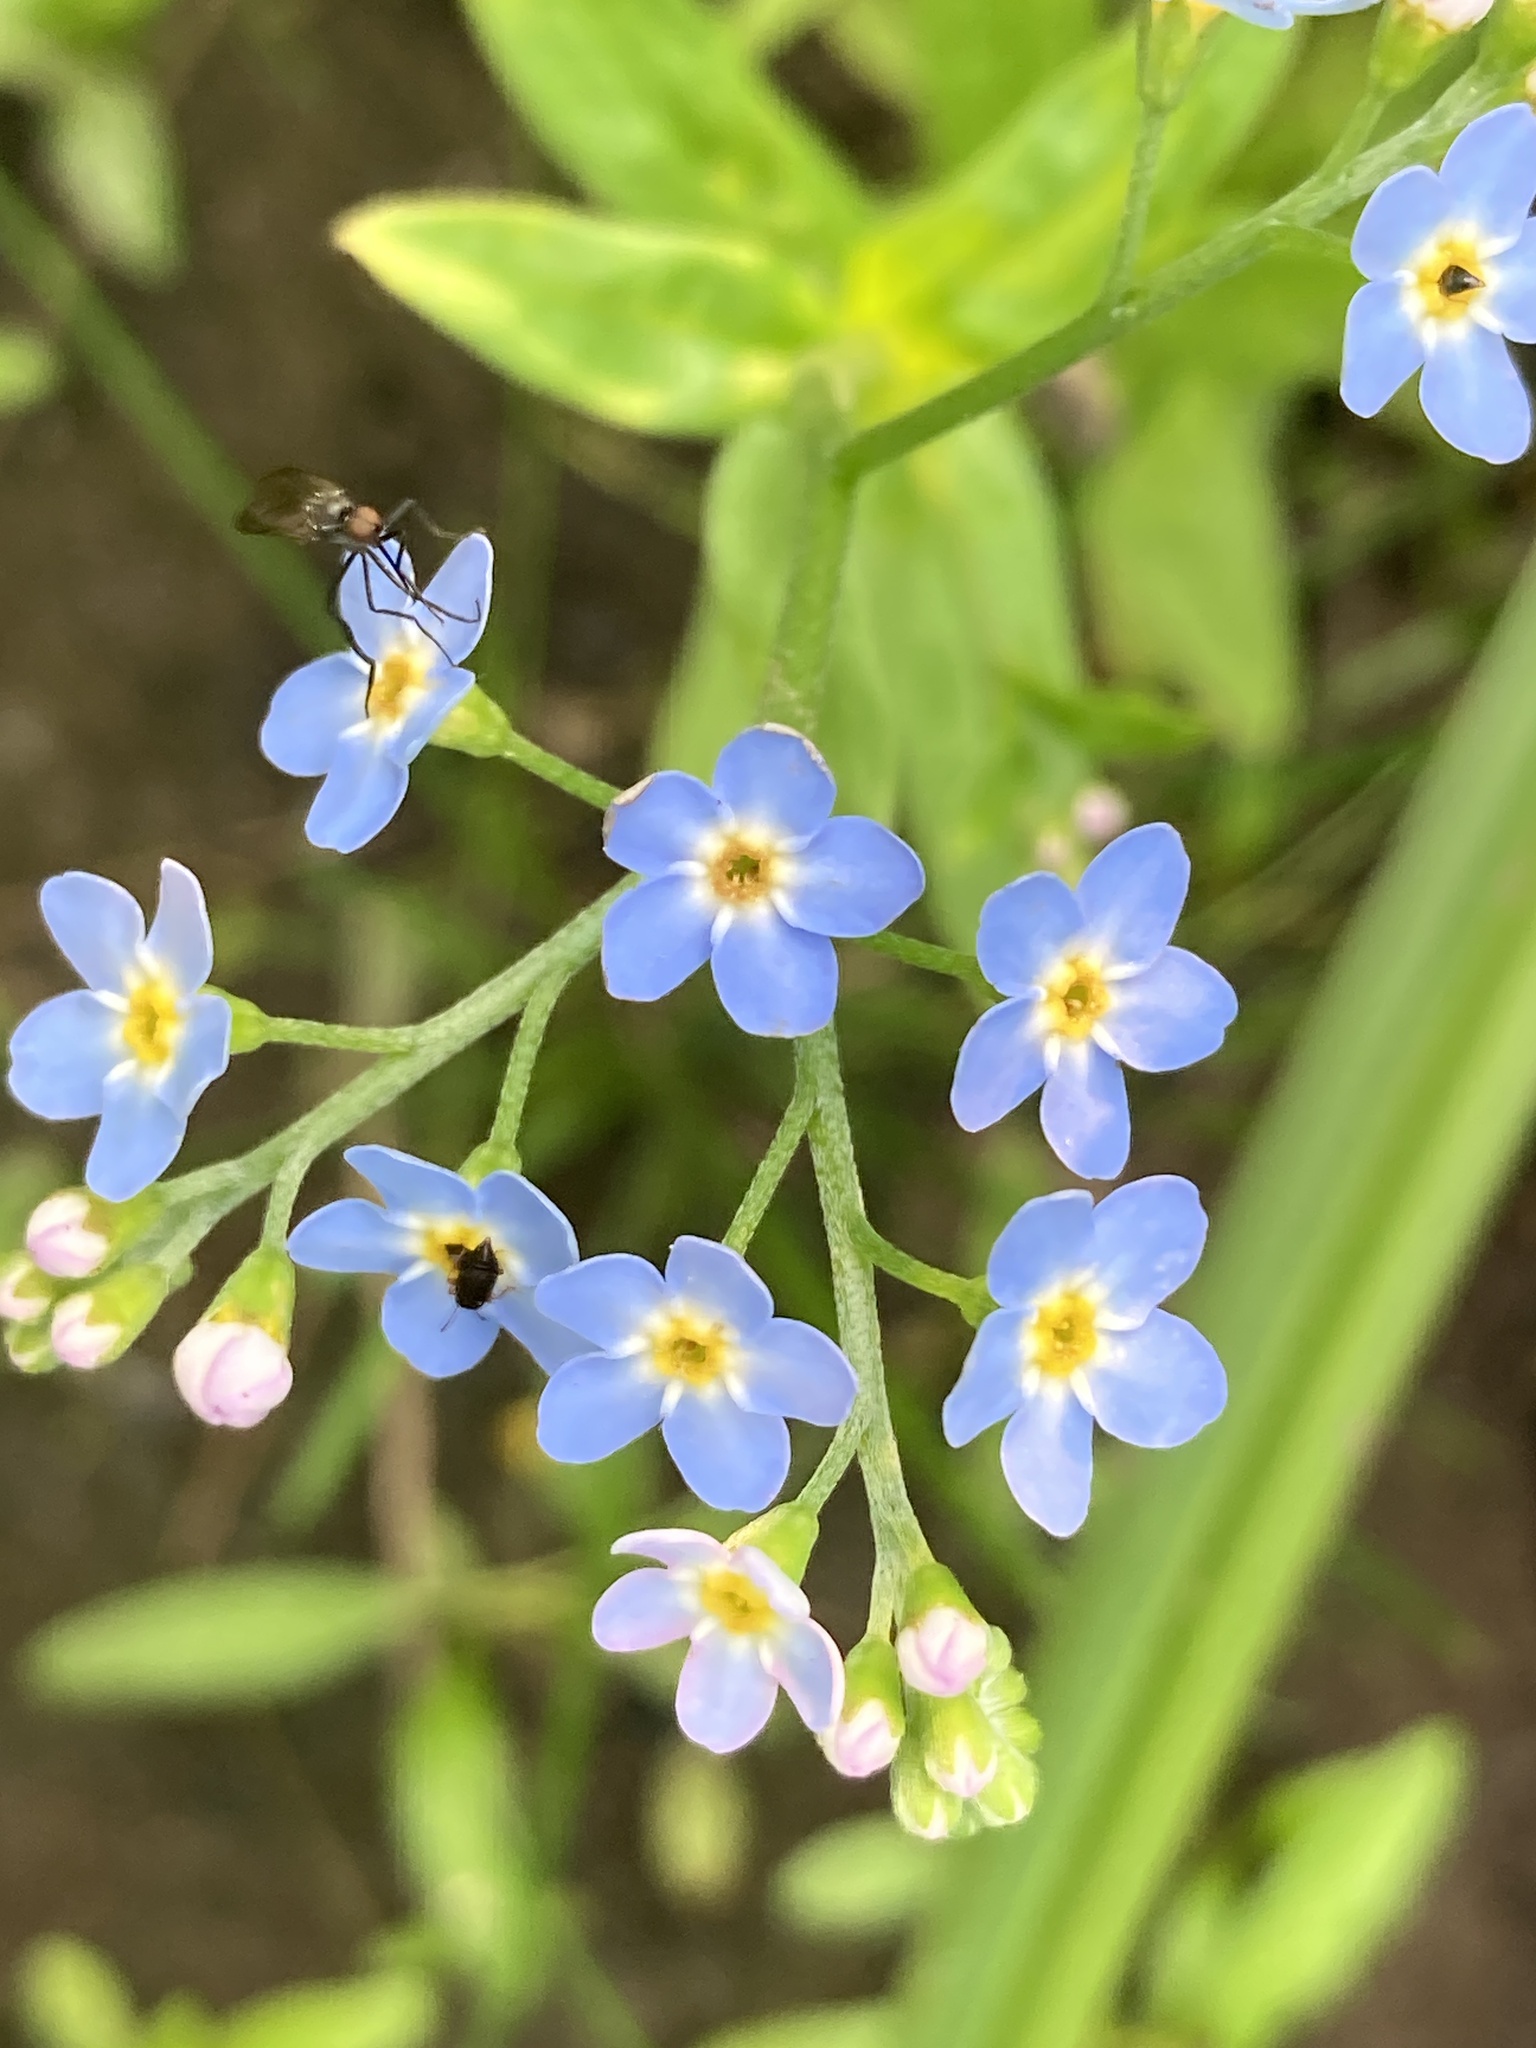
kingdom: Plantae
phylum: Tracheophyta
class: Magnoliopsida
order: Boraginales
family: Boraginaceae
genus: Myosotis
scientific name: Myosotis scorpioides
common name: Water forget-me-not
